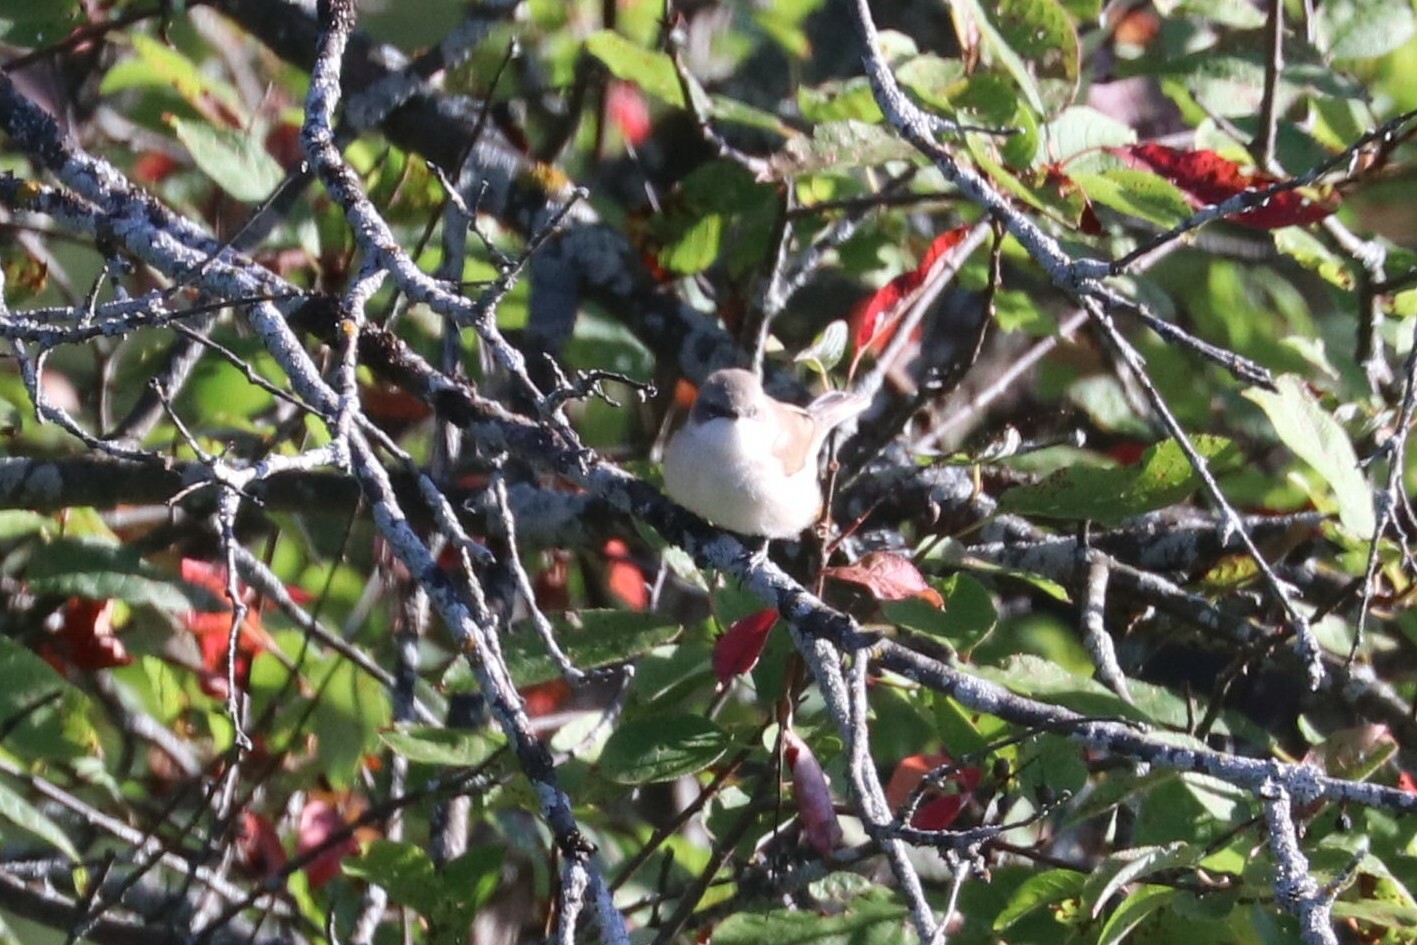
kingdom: Animalia
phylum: Chordata
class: Aves
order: Passeriformes
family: Sylviidae
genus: Sylvia
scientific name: Sylvia curruca
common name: Lesser whitethroat
